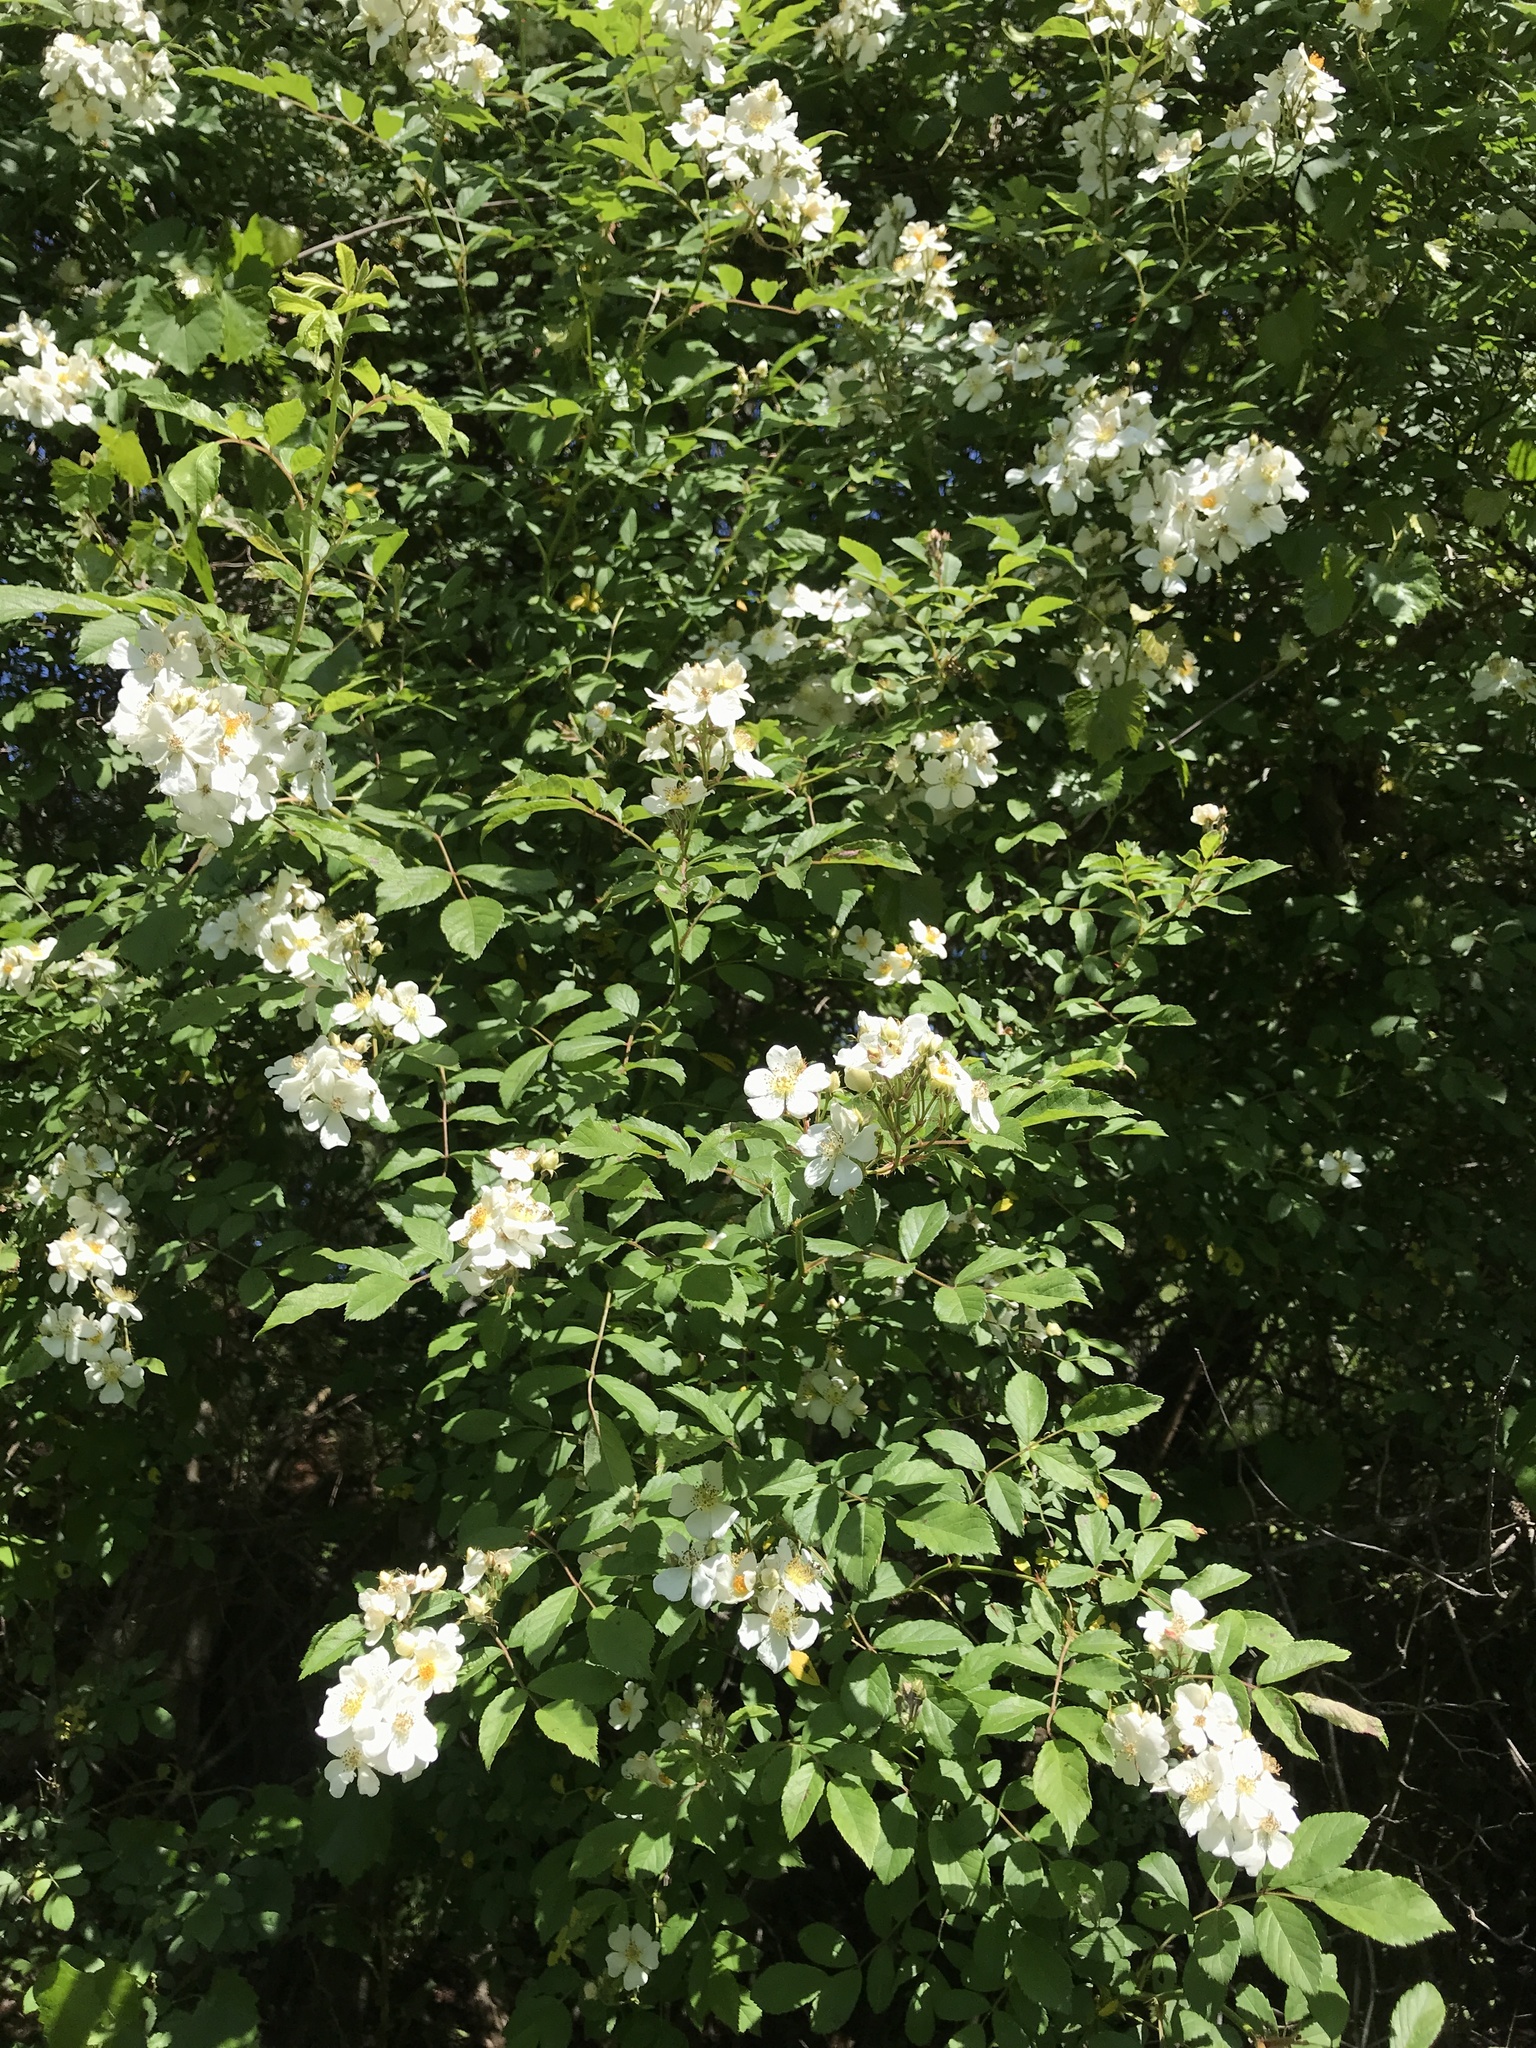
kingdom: Plantae
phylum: Tracheophyta
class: Magnoliopsida
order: Rosales
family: Rosaceae
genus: Rosa
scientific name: Rosa multiflora
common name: Multiflora rose
